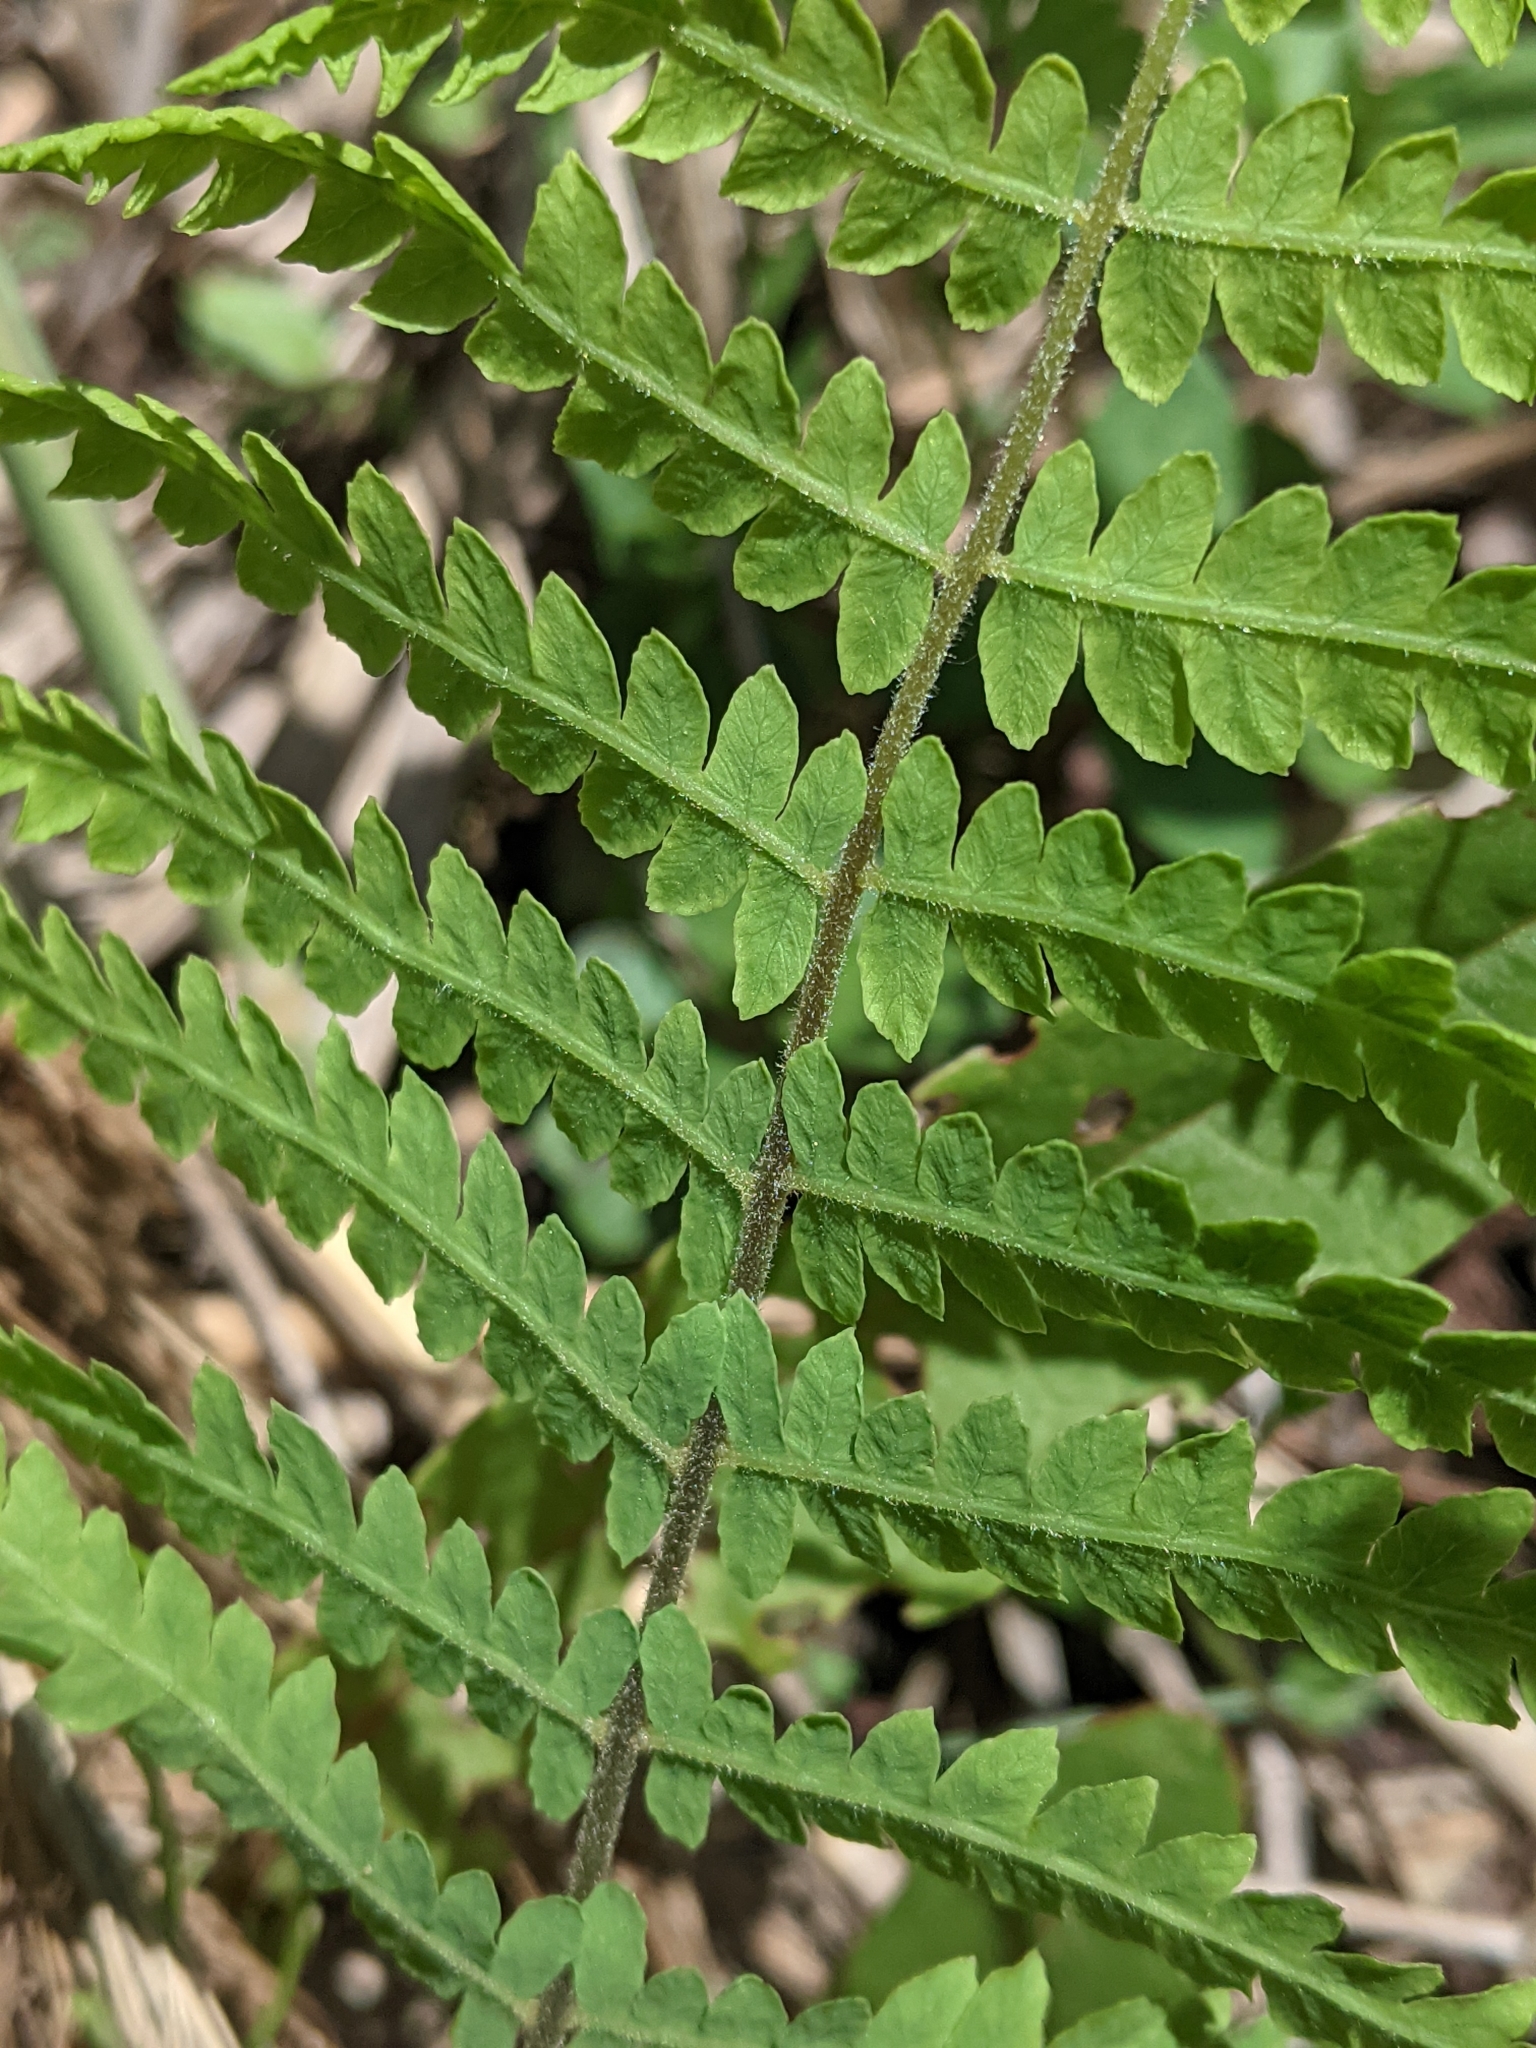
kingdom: Plantae
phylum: Tracheophyta
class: Polypodiopsida
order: Polypodiales
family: Thelypteridaceae
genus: Thelypteris
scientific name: Thelypteris palustris
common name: Marsh fern
